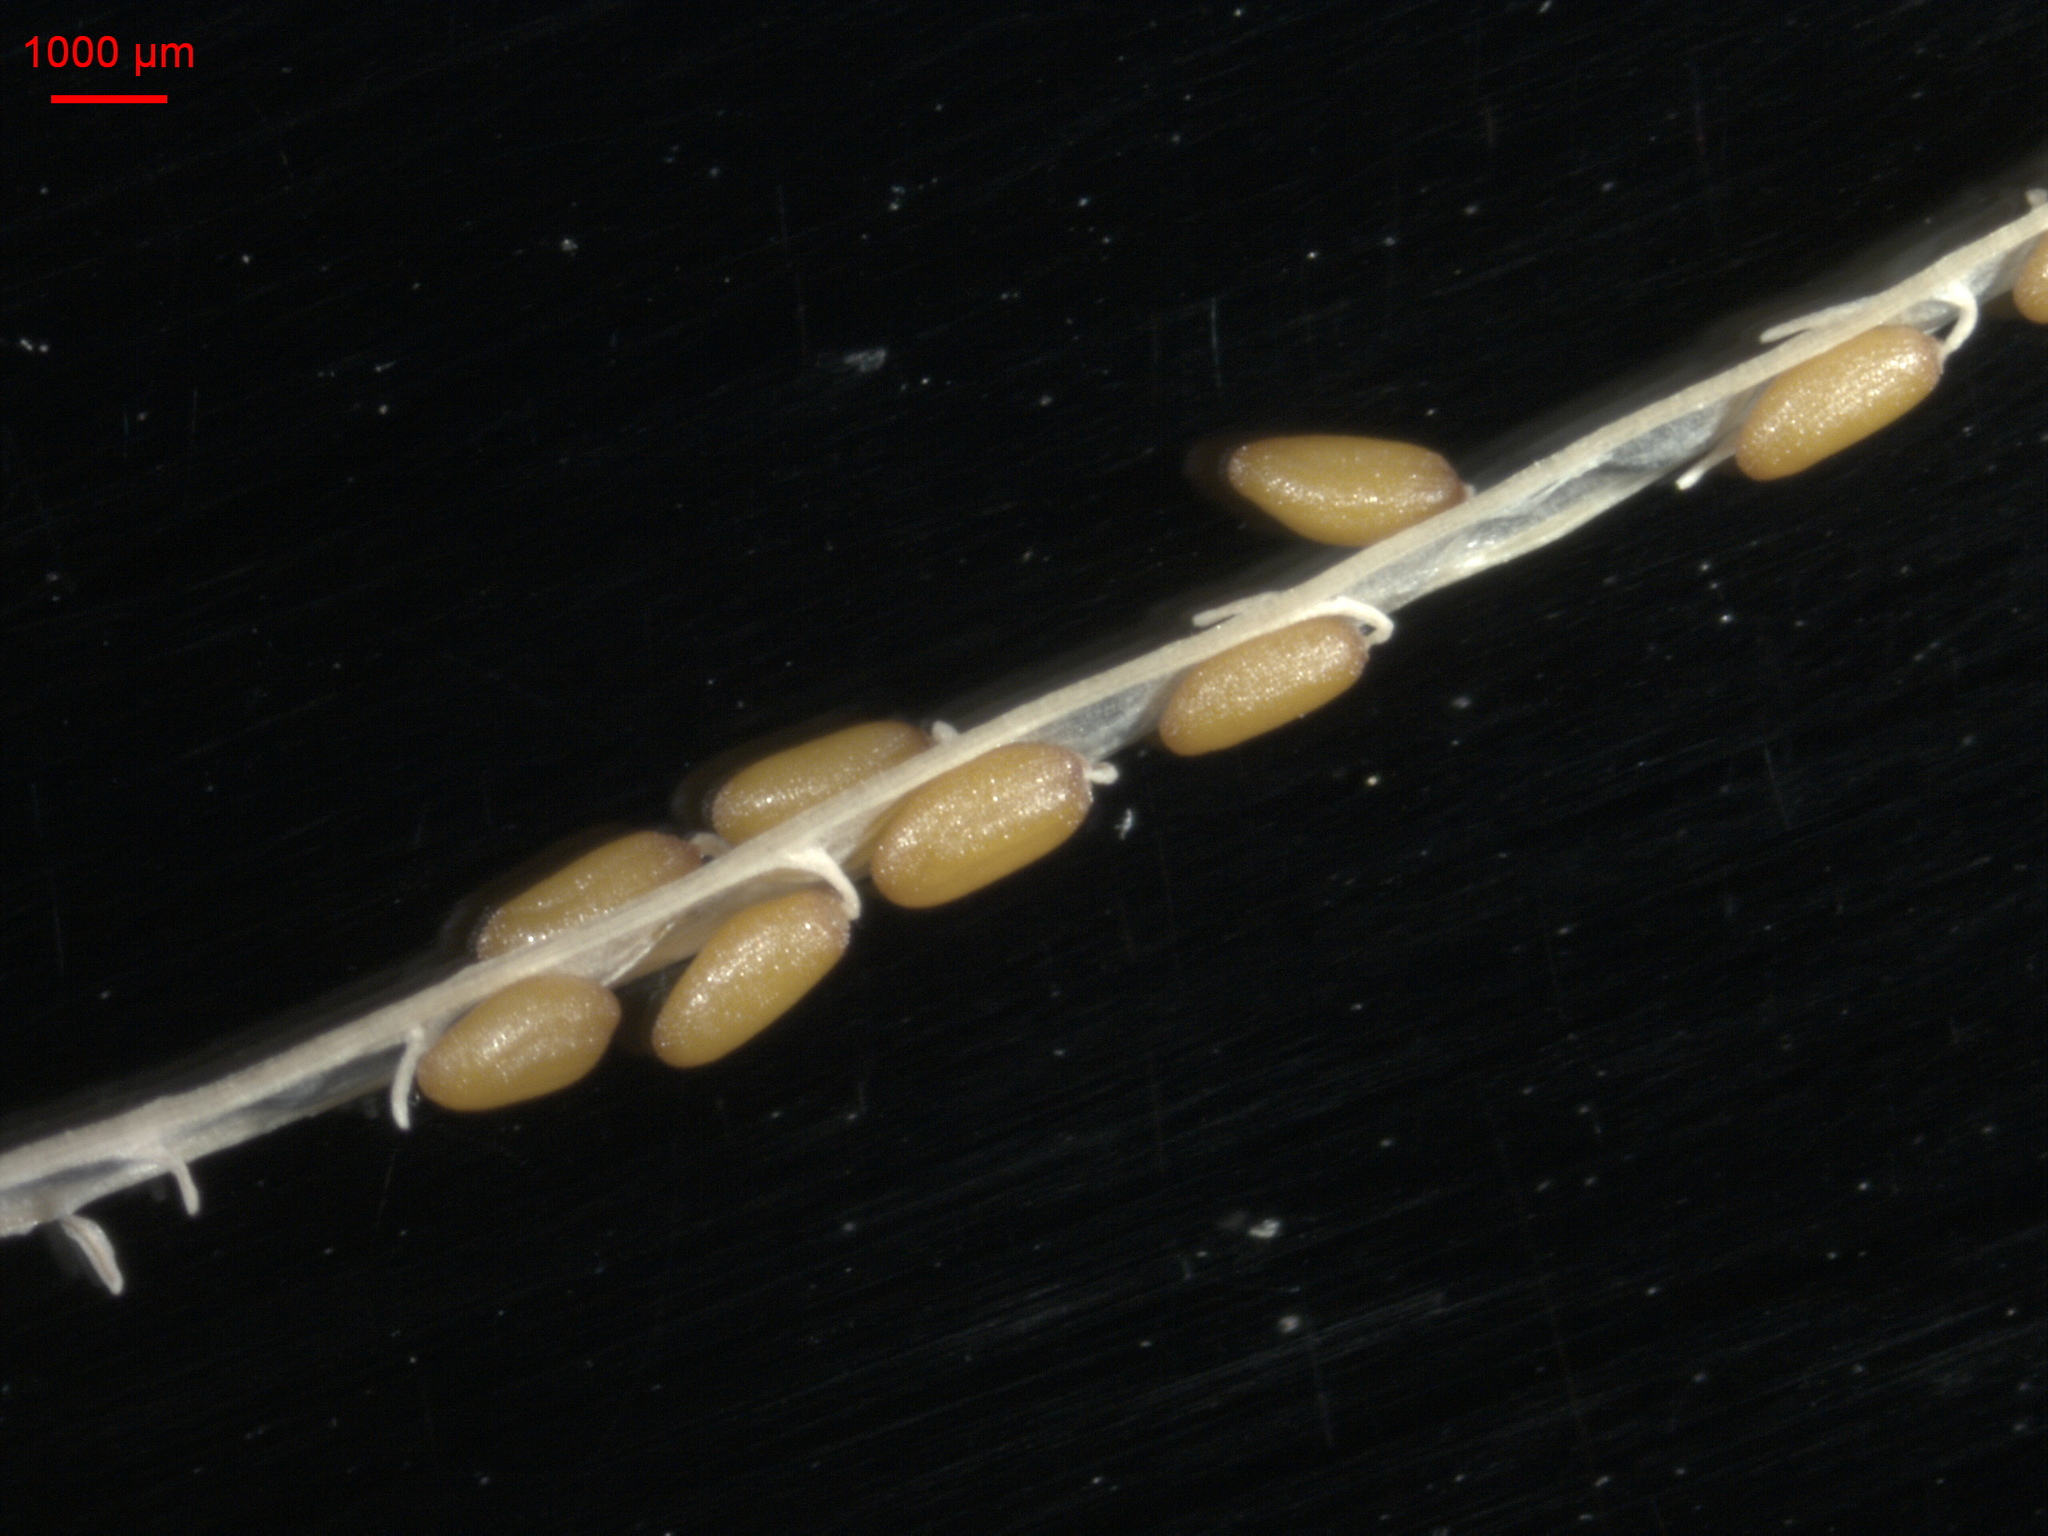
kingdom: Plantae
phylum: Tracheophyta
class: Magnoliopsida
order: Brassicales
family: Brassicaceae
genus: Descurainia
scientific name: Descurainia sophia
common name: Flixweed
